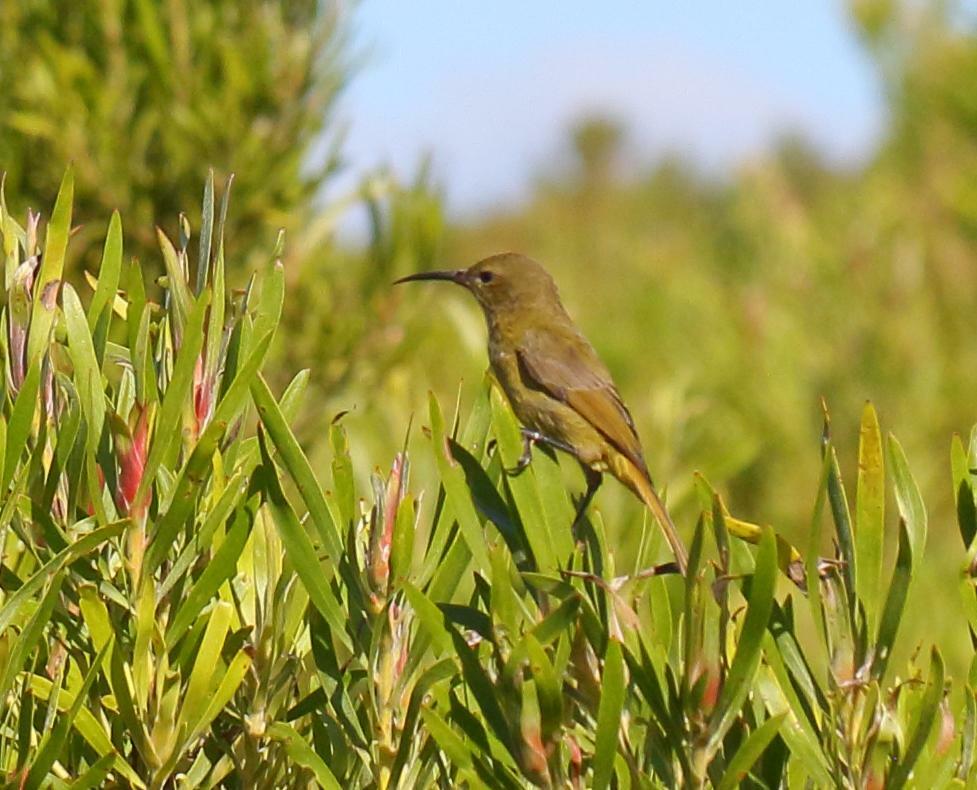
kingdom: Animalia
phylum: Chordata
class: Aves
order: Passeriformes
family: Nectariniidae
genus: Anthobaphes
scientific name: Anthobaphes violacea
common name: Orange-breasted sunbird
